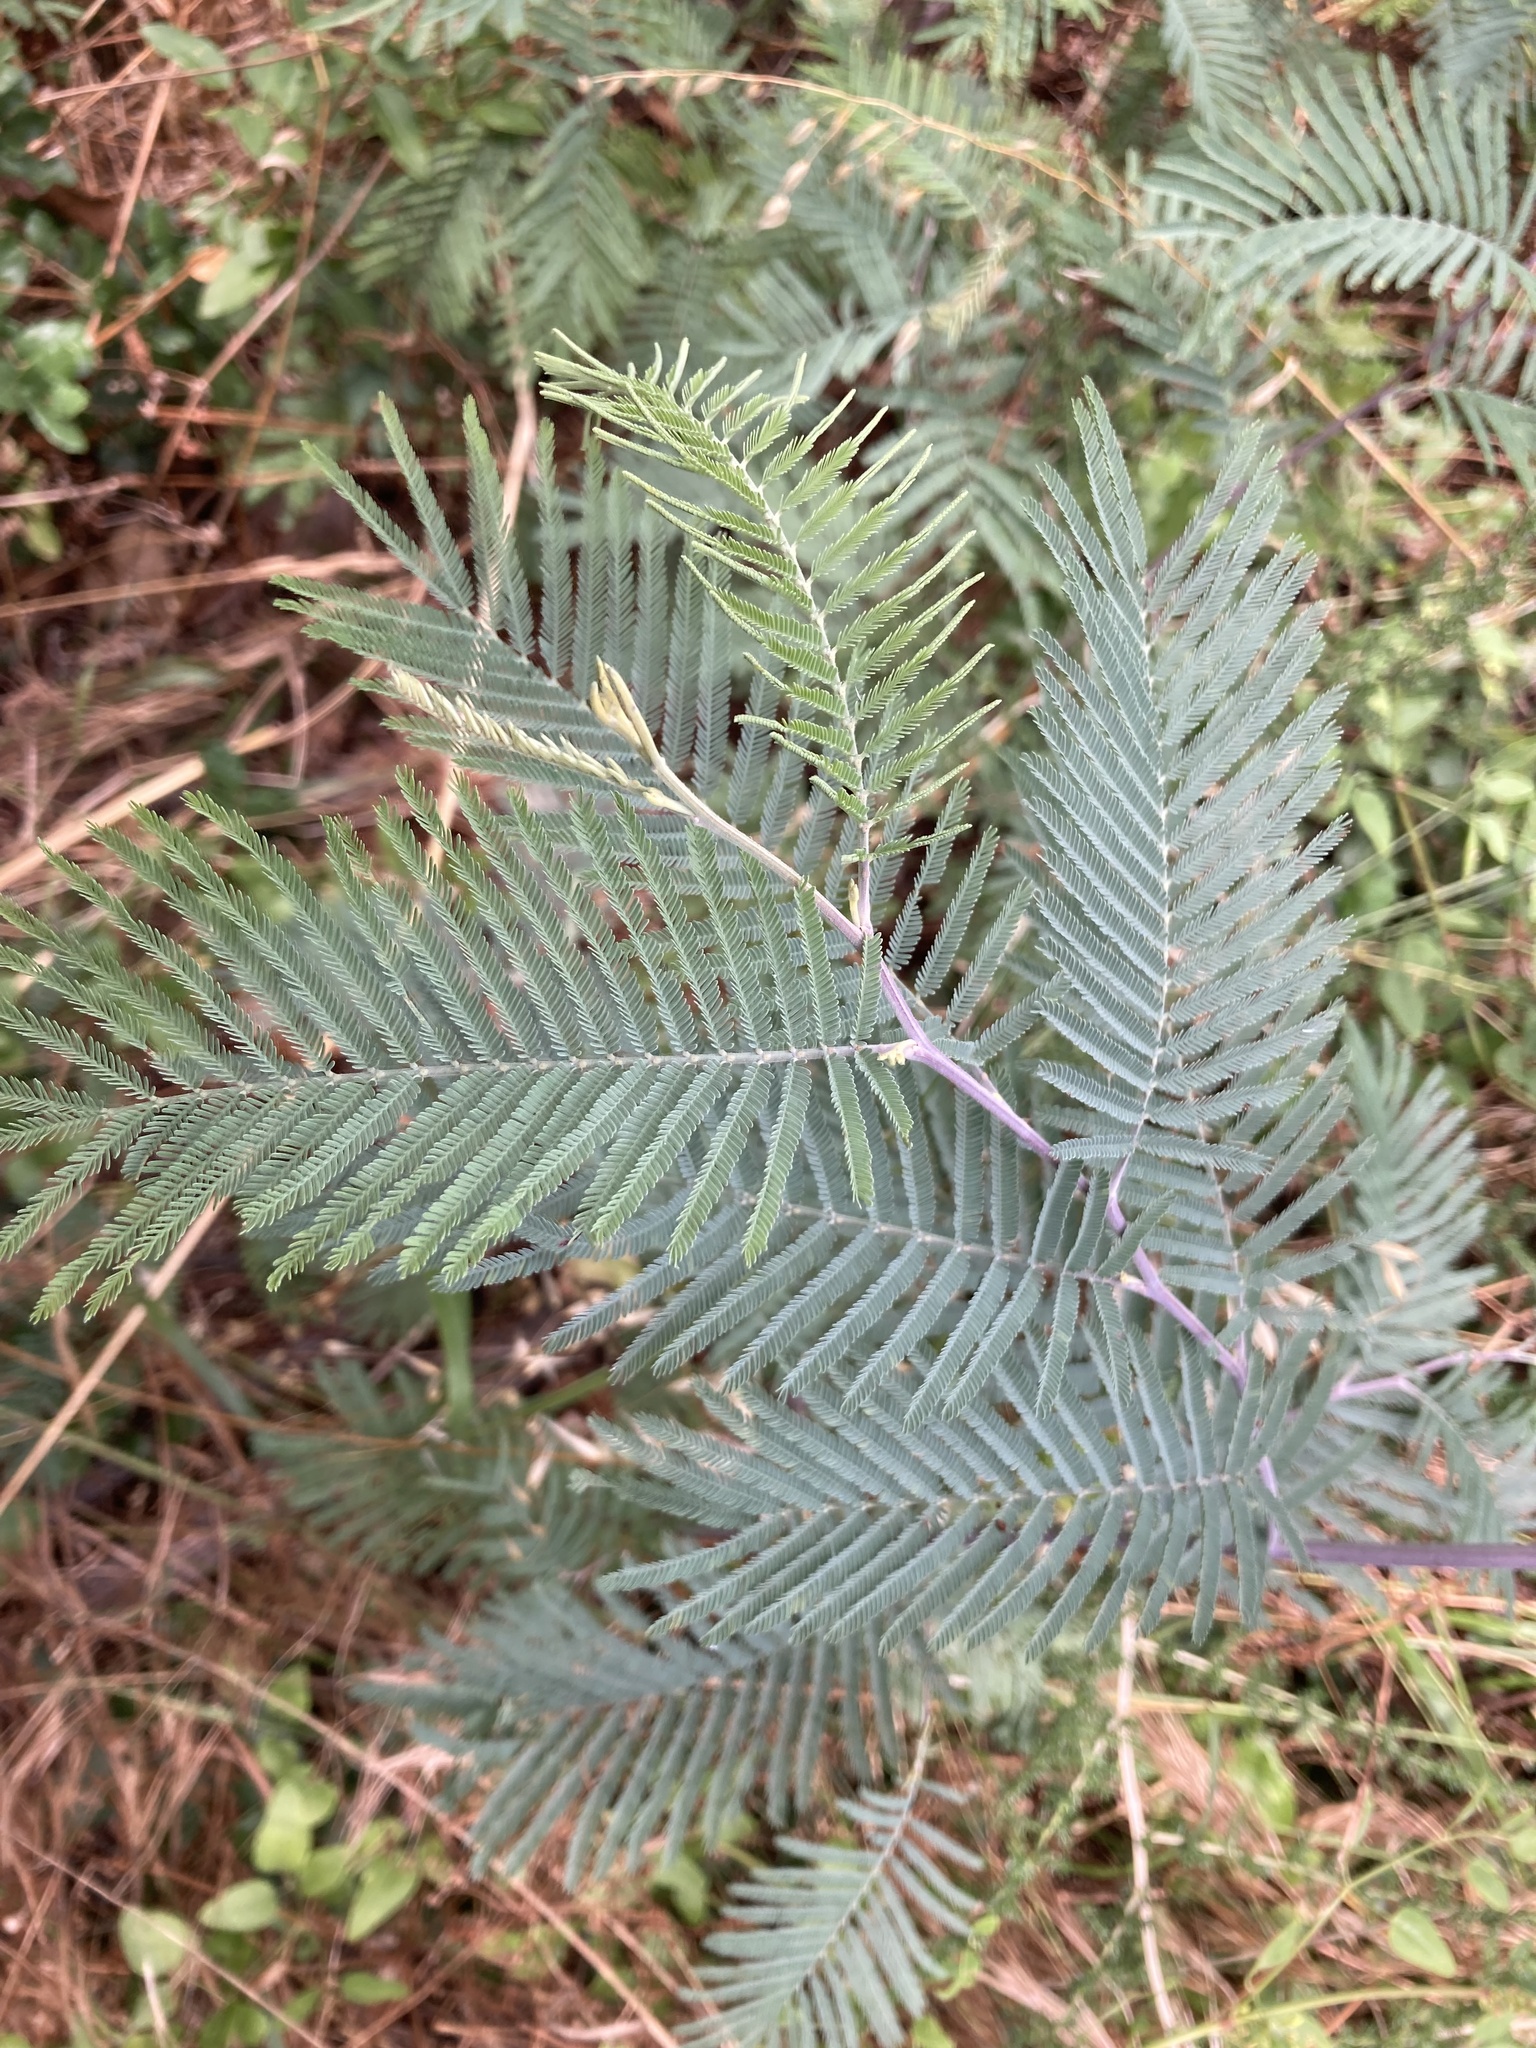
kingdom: Plantae
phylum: Tracheophyta
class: Magnoliopsida
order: Fabales
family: Fabaceae
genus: Acacia
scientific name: Acacia dealbata
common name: Silver wattle
